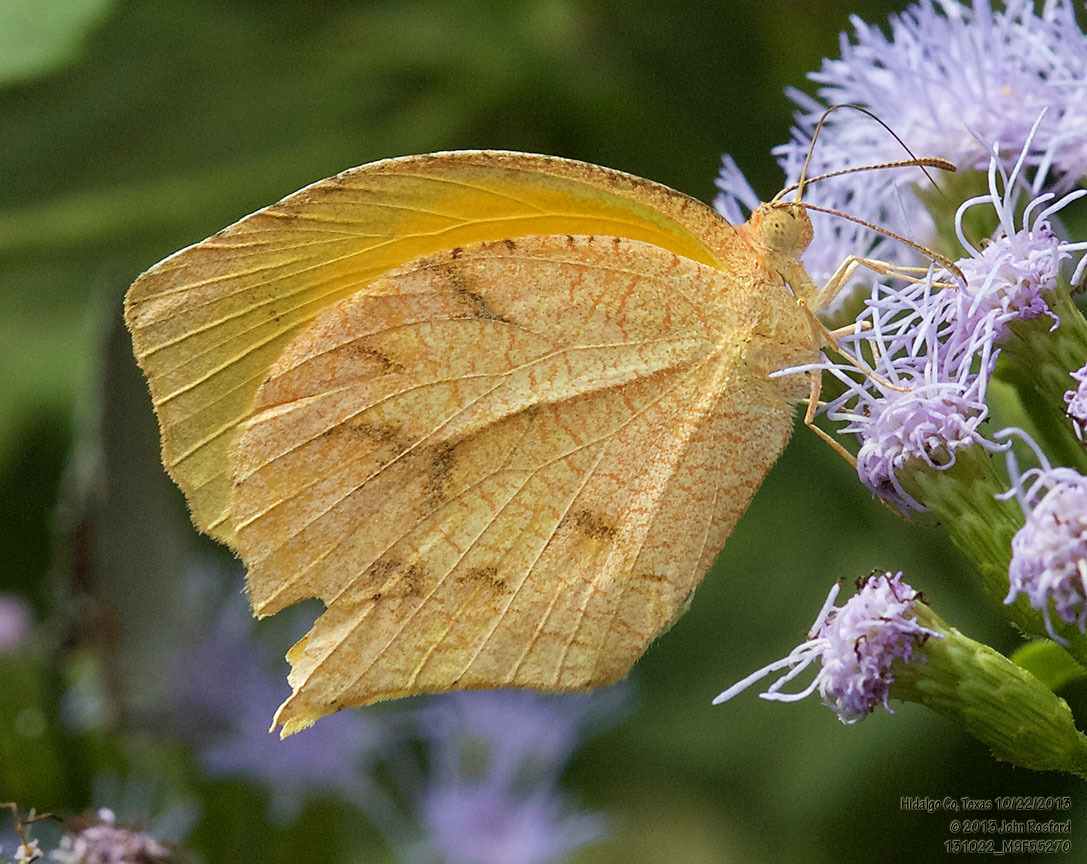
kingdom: Animalia
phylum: Arthropoda
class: Insecta
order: Lepidoptera
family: Pieridae
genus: Pyrisitia
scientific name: Pyrisitia proterpia
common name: Tailed orange
